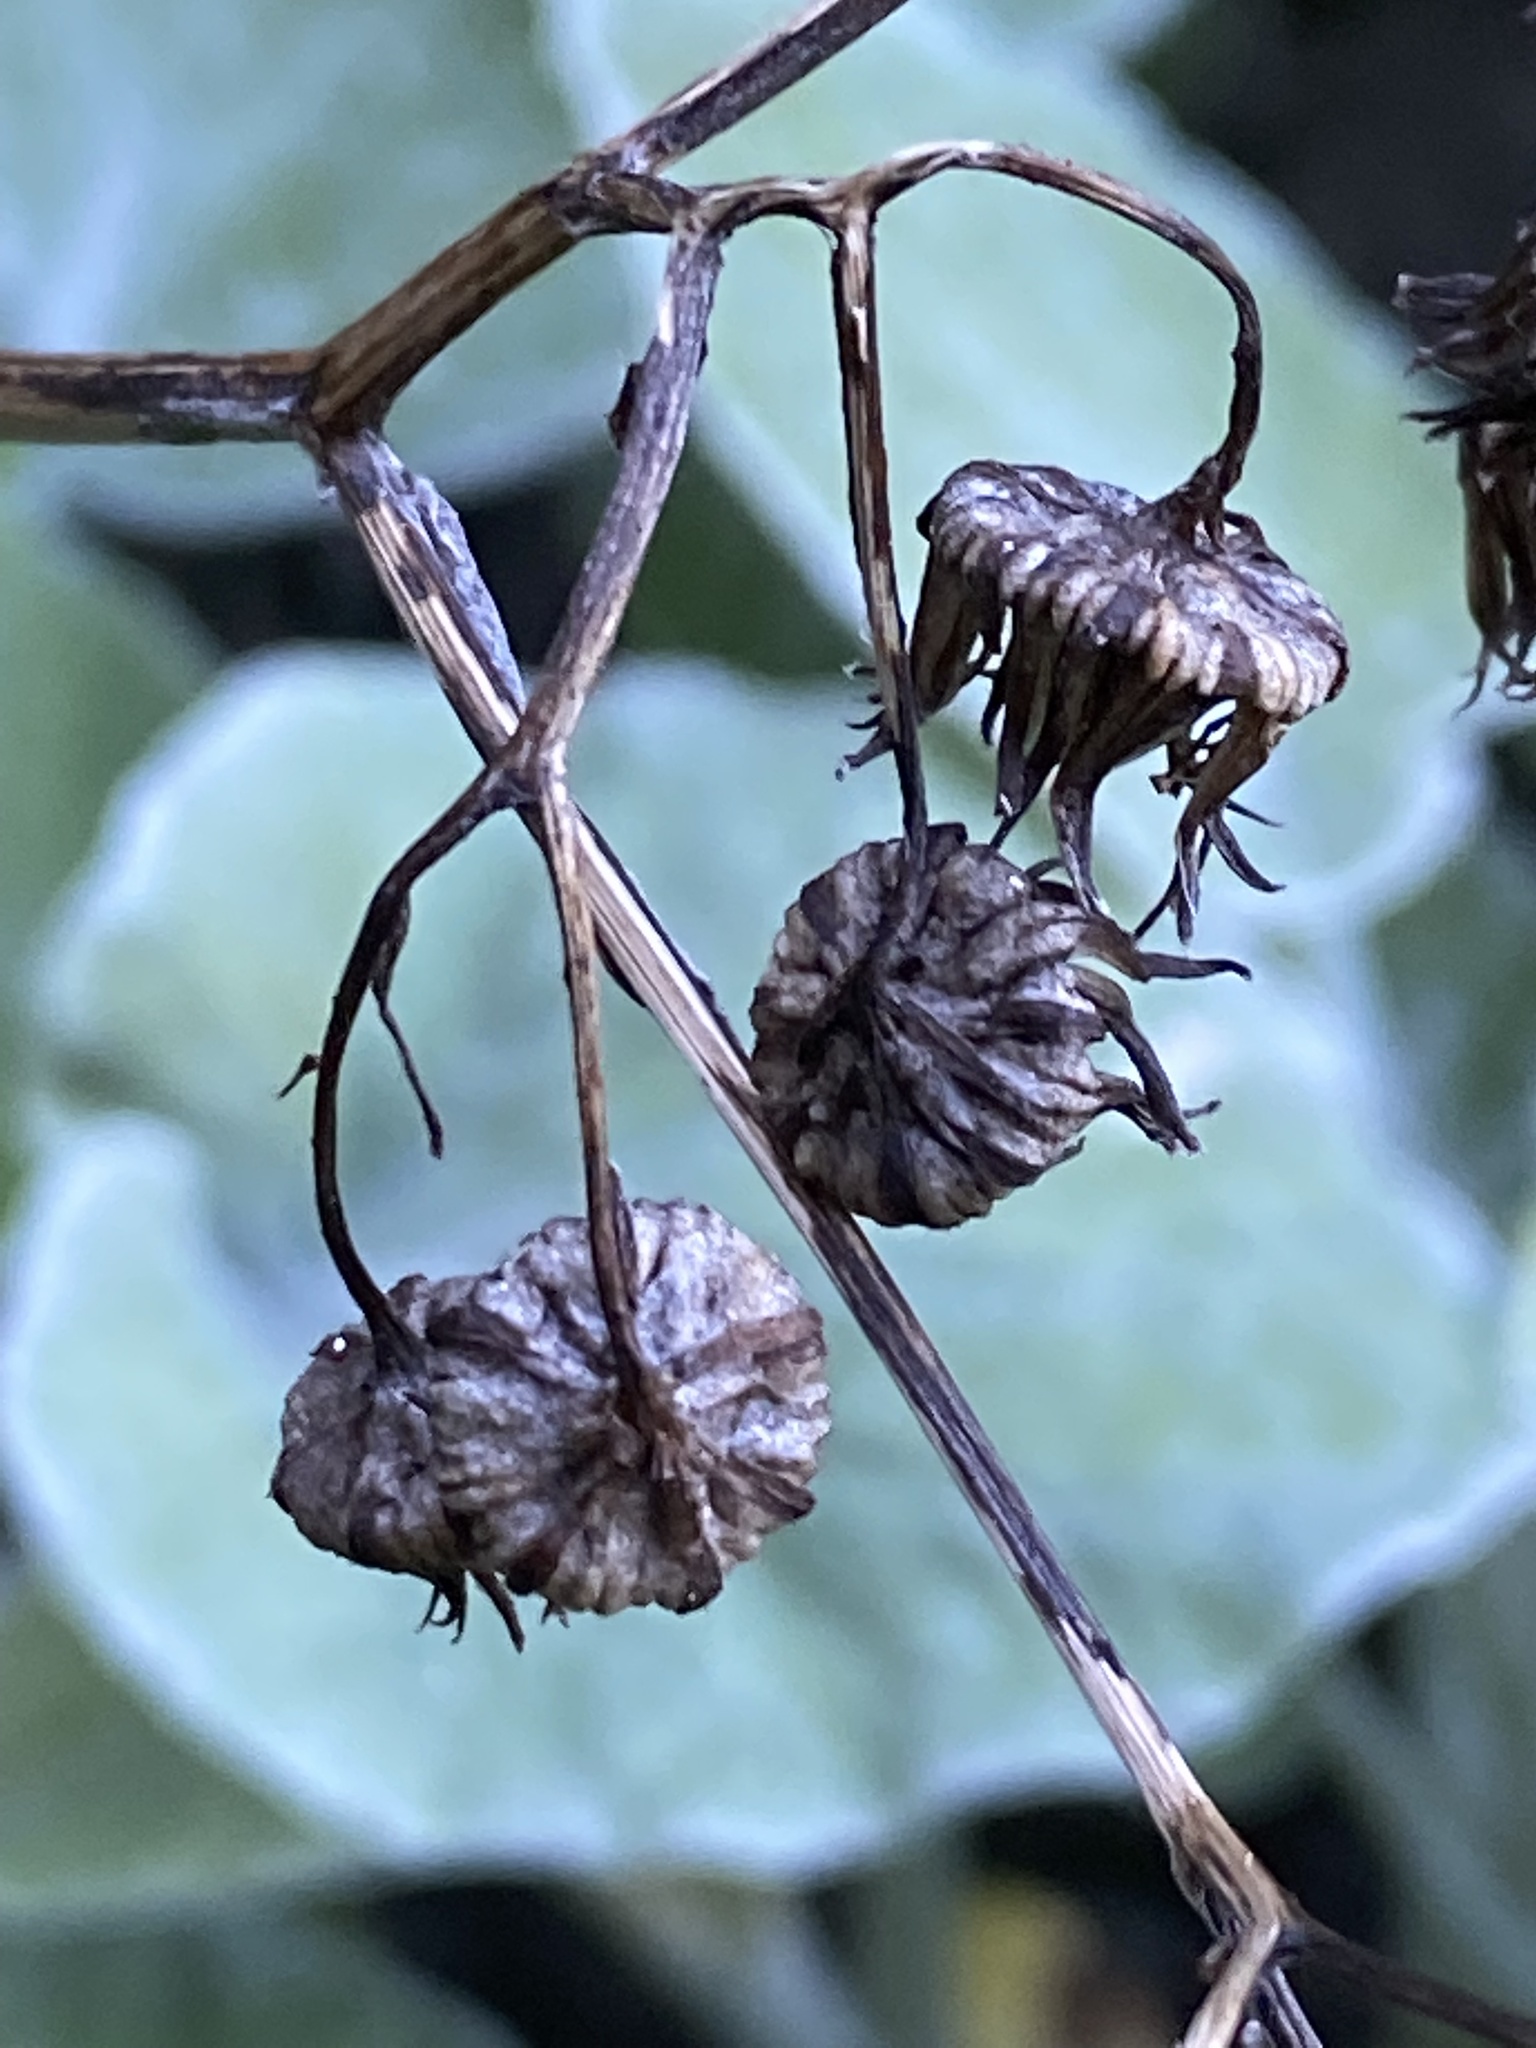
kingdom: Plantae
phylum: Tracheophyta
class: Magnoliopsida
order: Asterales
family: Asteraceae
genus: Senecio
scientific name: Senecio verbascifolius
